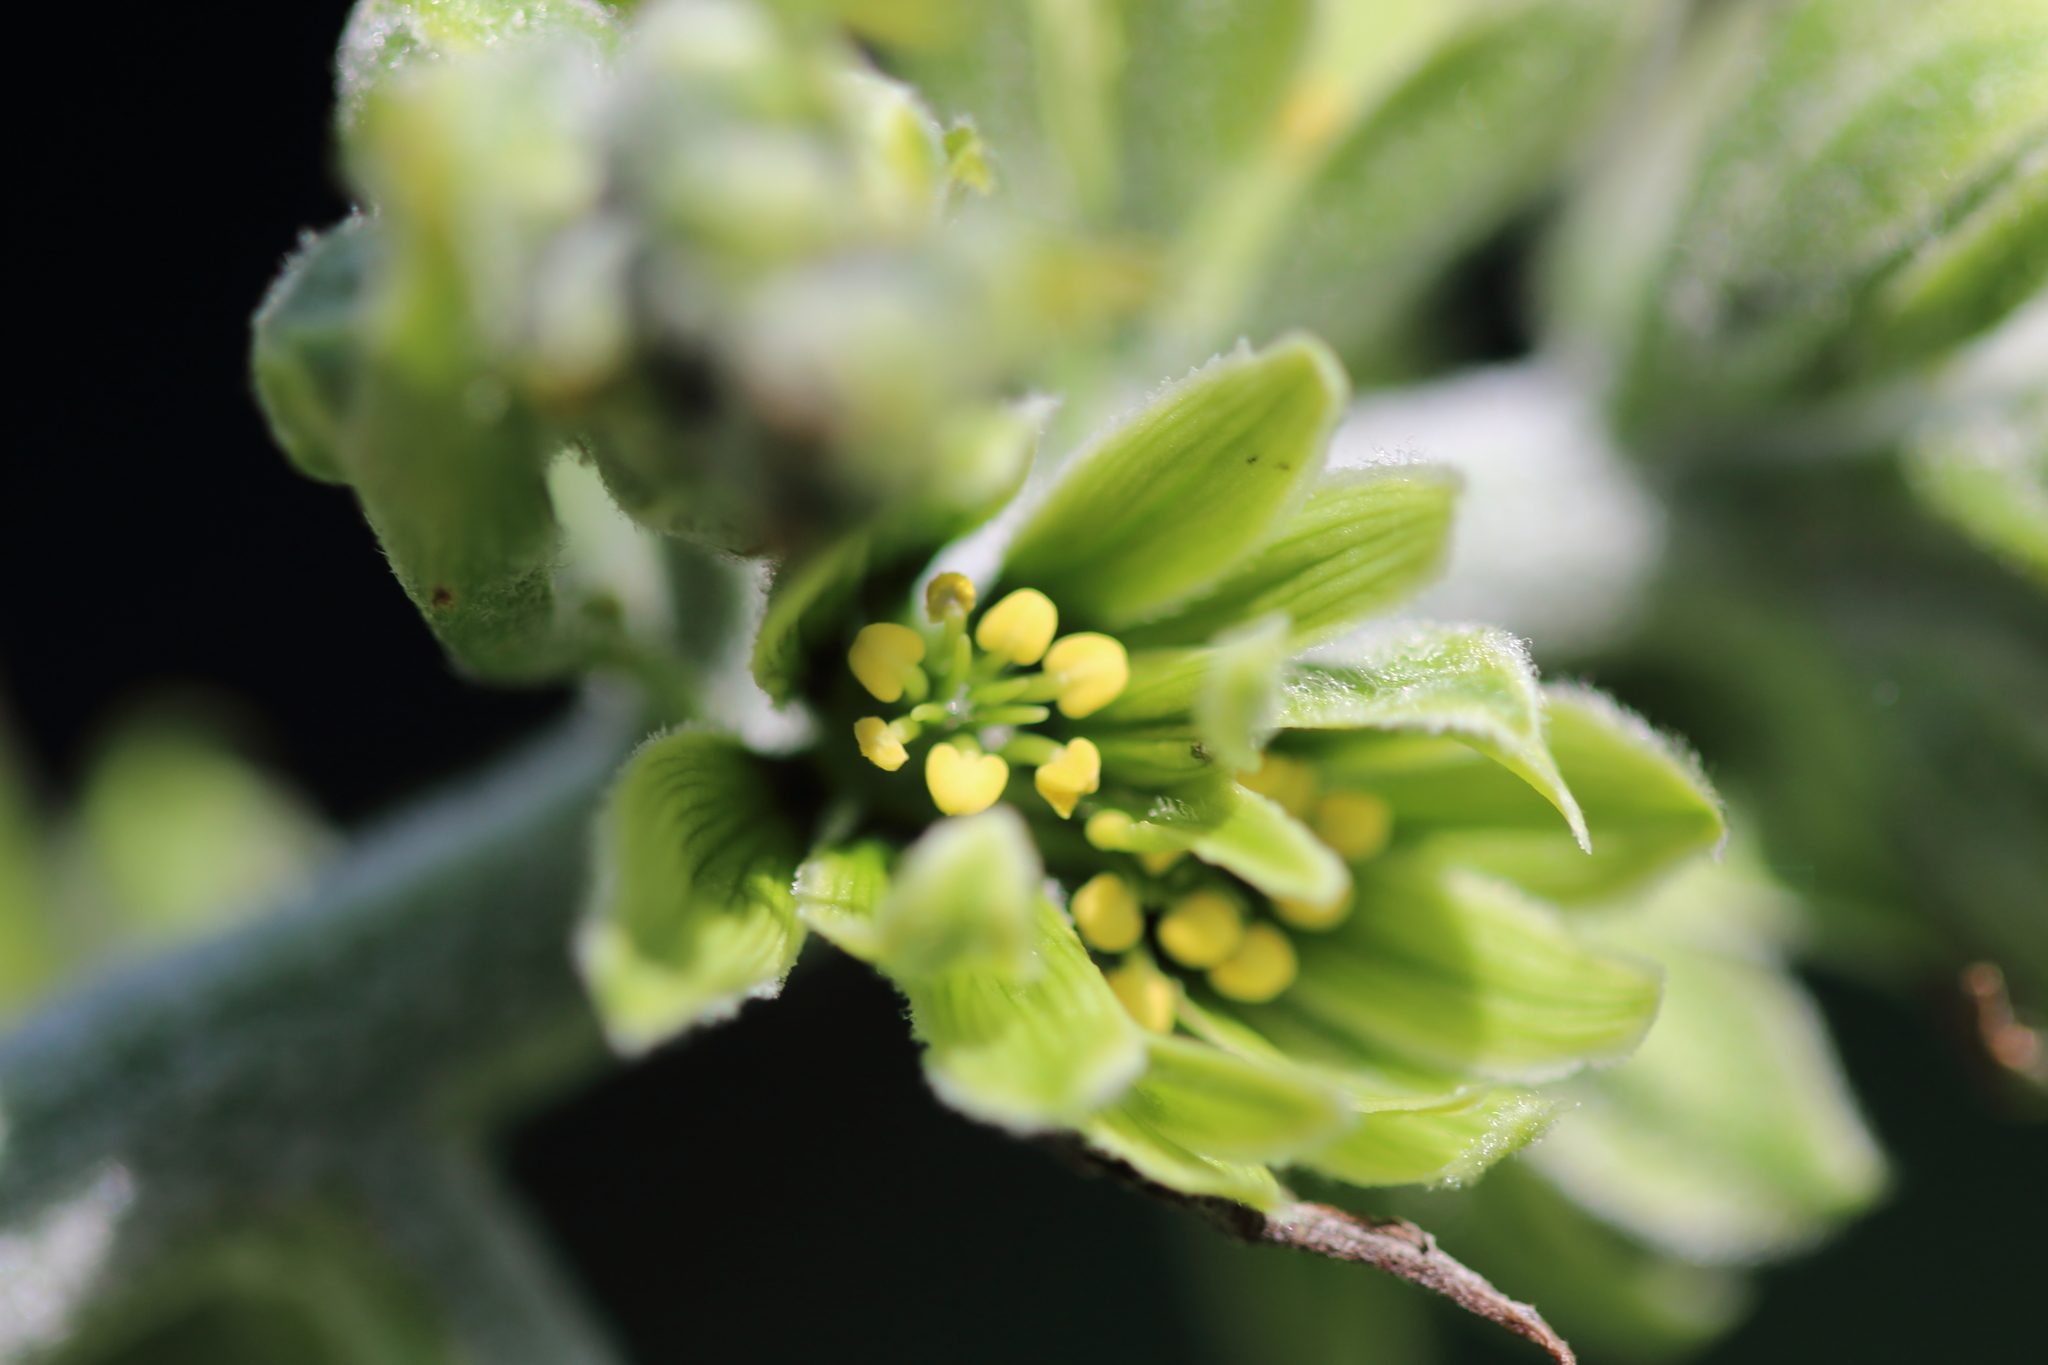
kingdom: Plantae
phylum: Tracheophyta
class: Liliopsida
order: Liliales
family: Melanthiaceae
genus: Veratrum
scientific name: Veratrum viride
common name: American false hellebore
